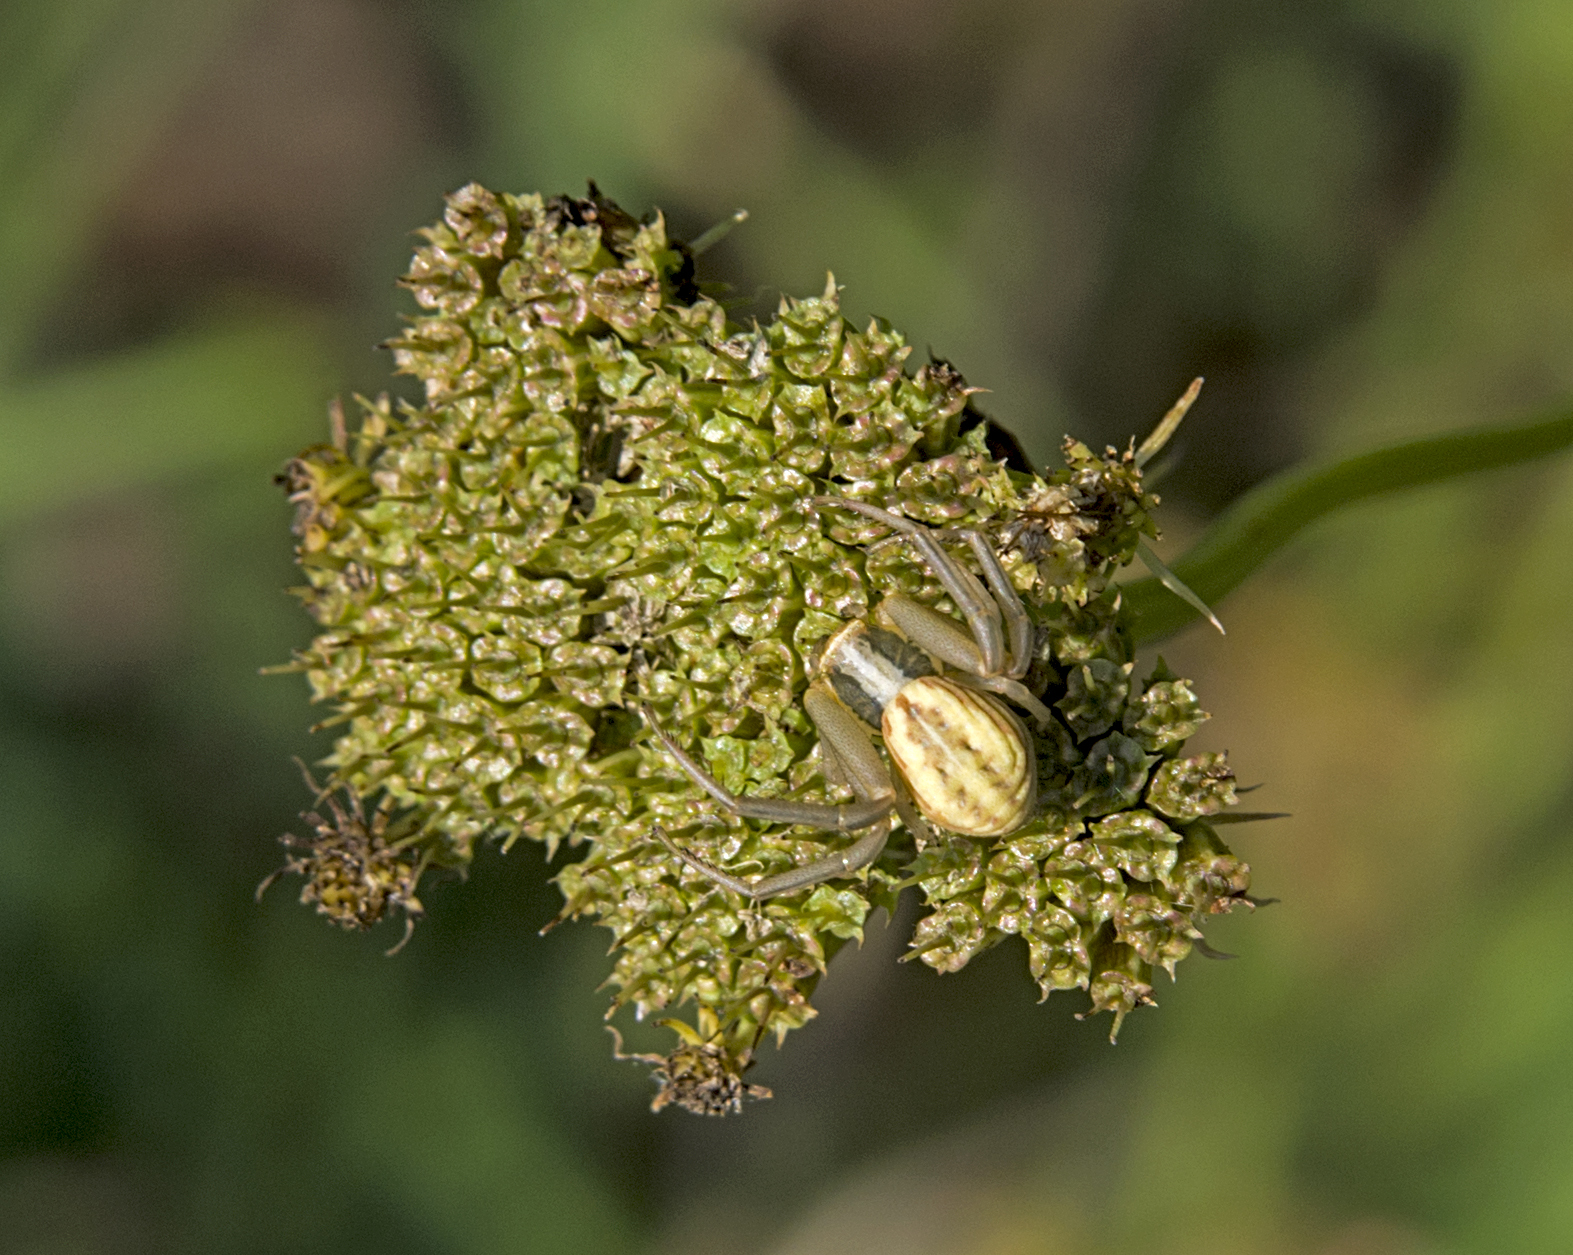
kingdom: Animalia
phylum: Arthropoda
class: Arachnida
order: Araneae
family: Thomisidae
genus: Runcinia
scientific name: Runcinia grammica
